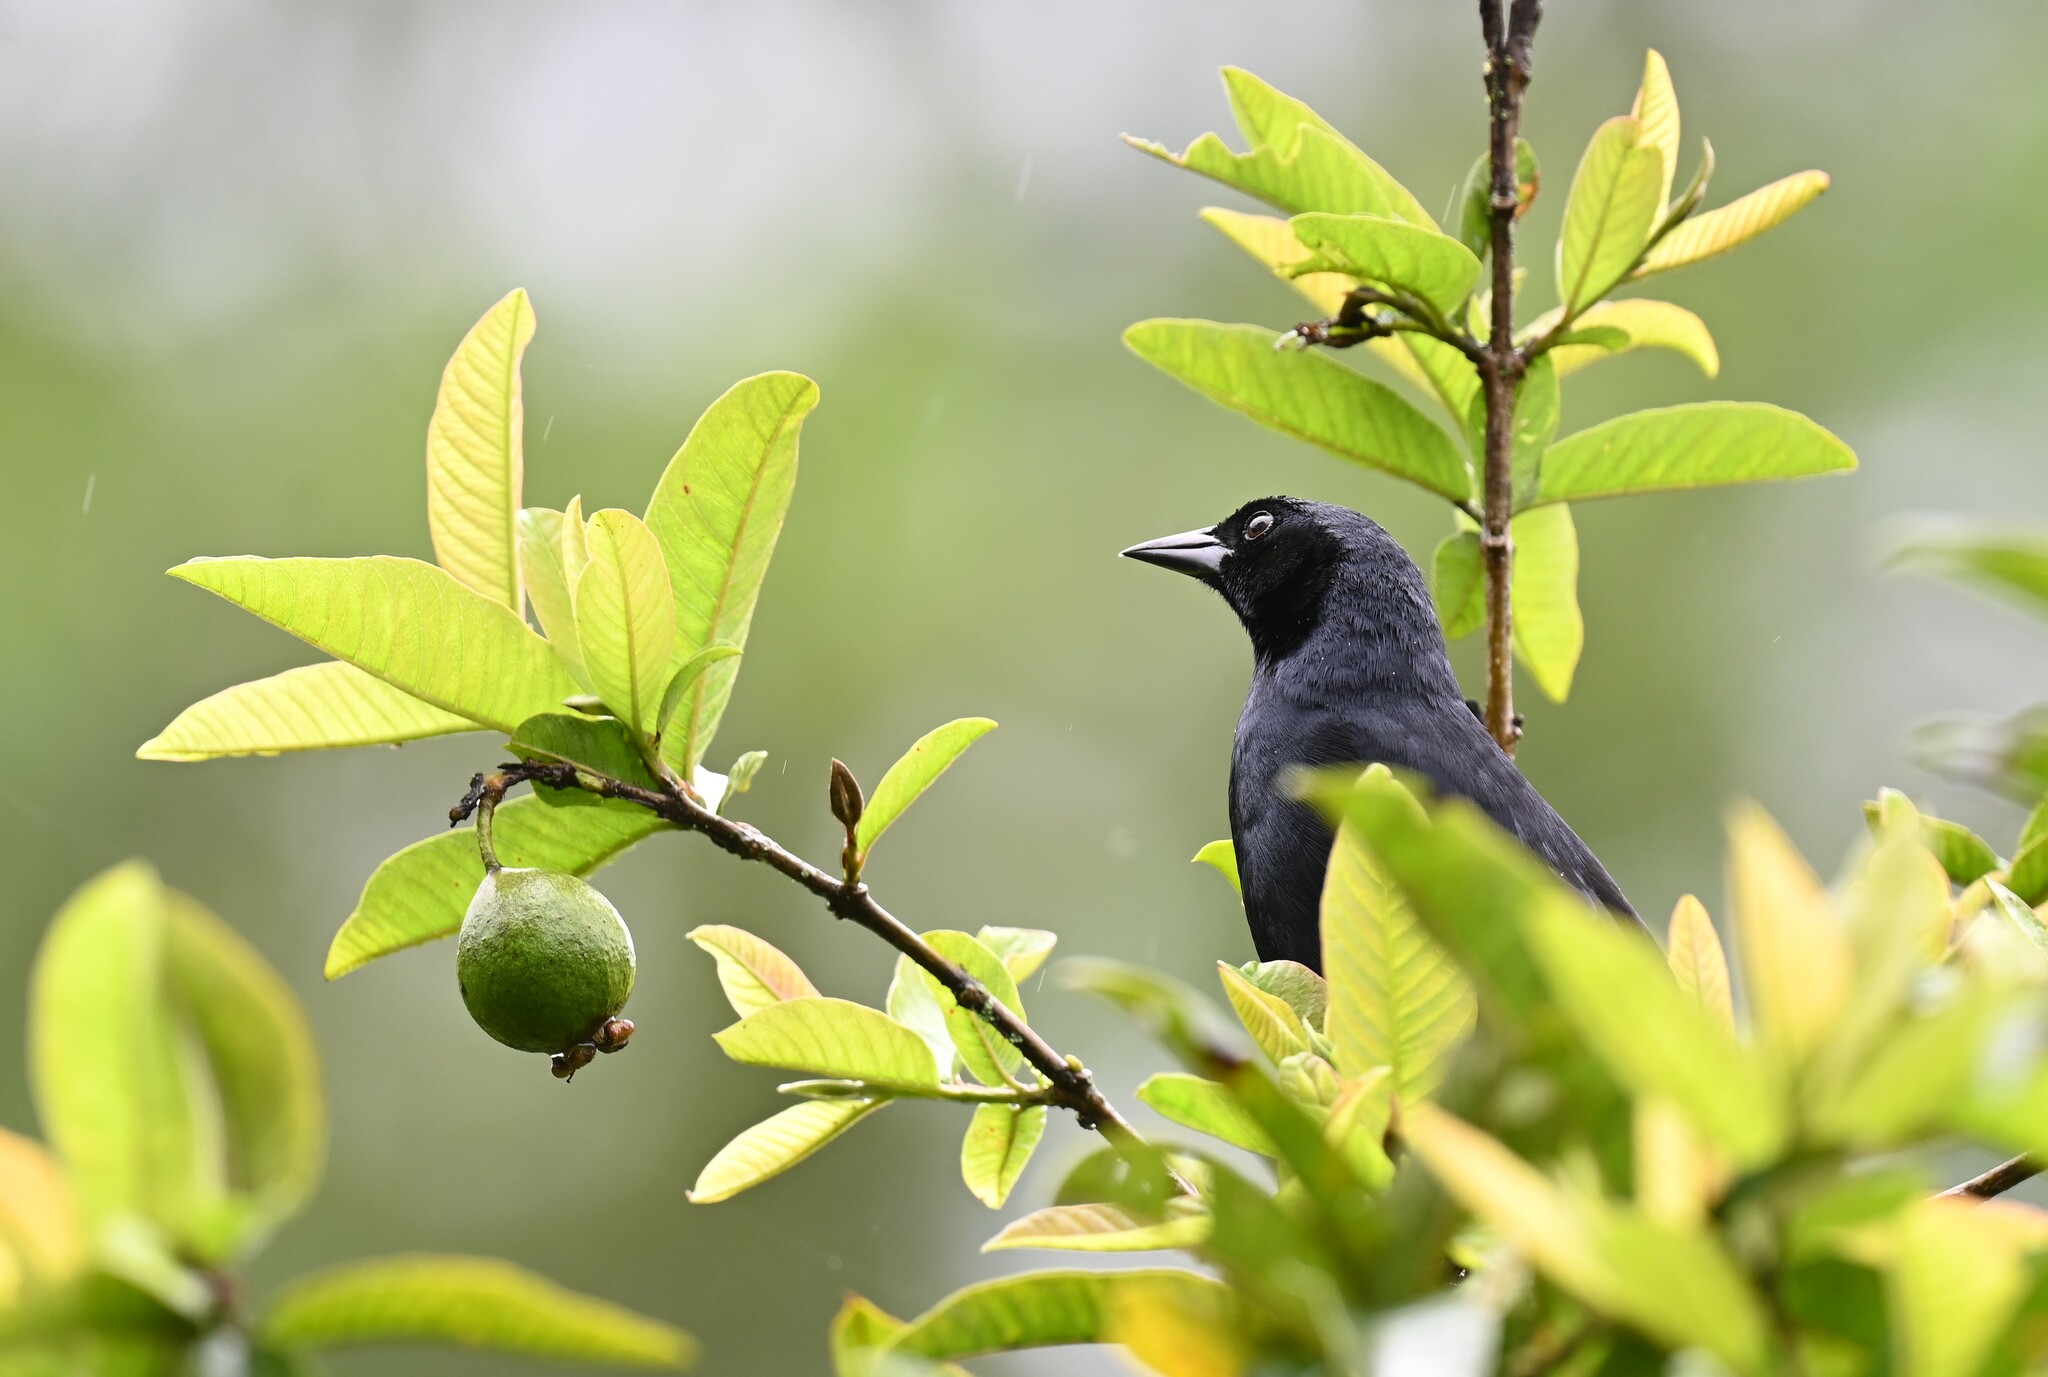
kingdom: Animalia
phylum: Chordata
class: Aves
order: Passeriformes
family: Icteridae
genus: Dives
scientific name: Dives warczewiczi
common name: Scrub blackbird
